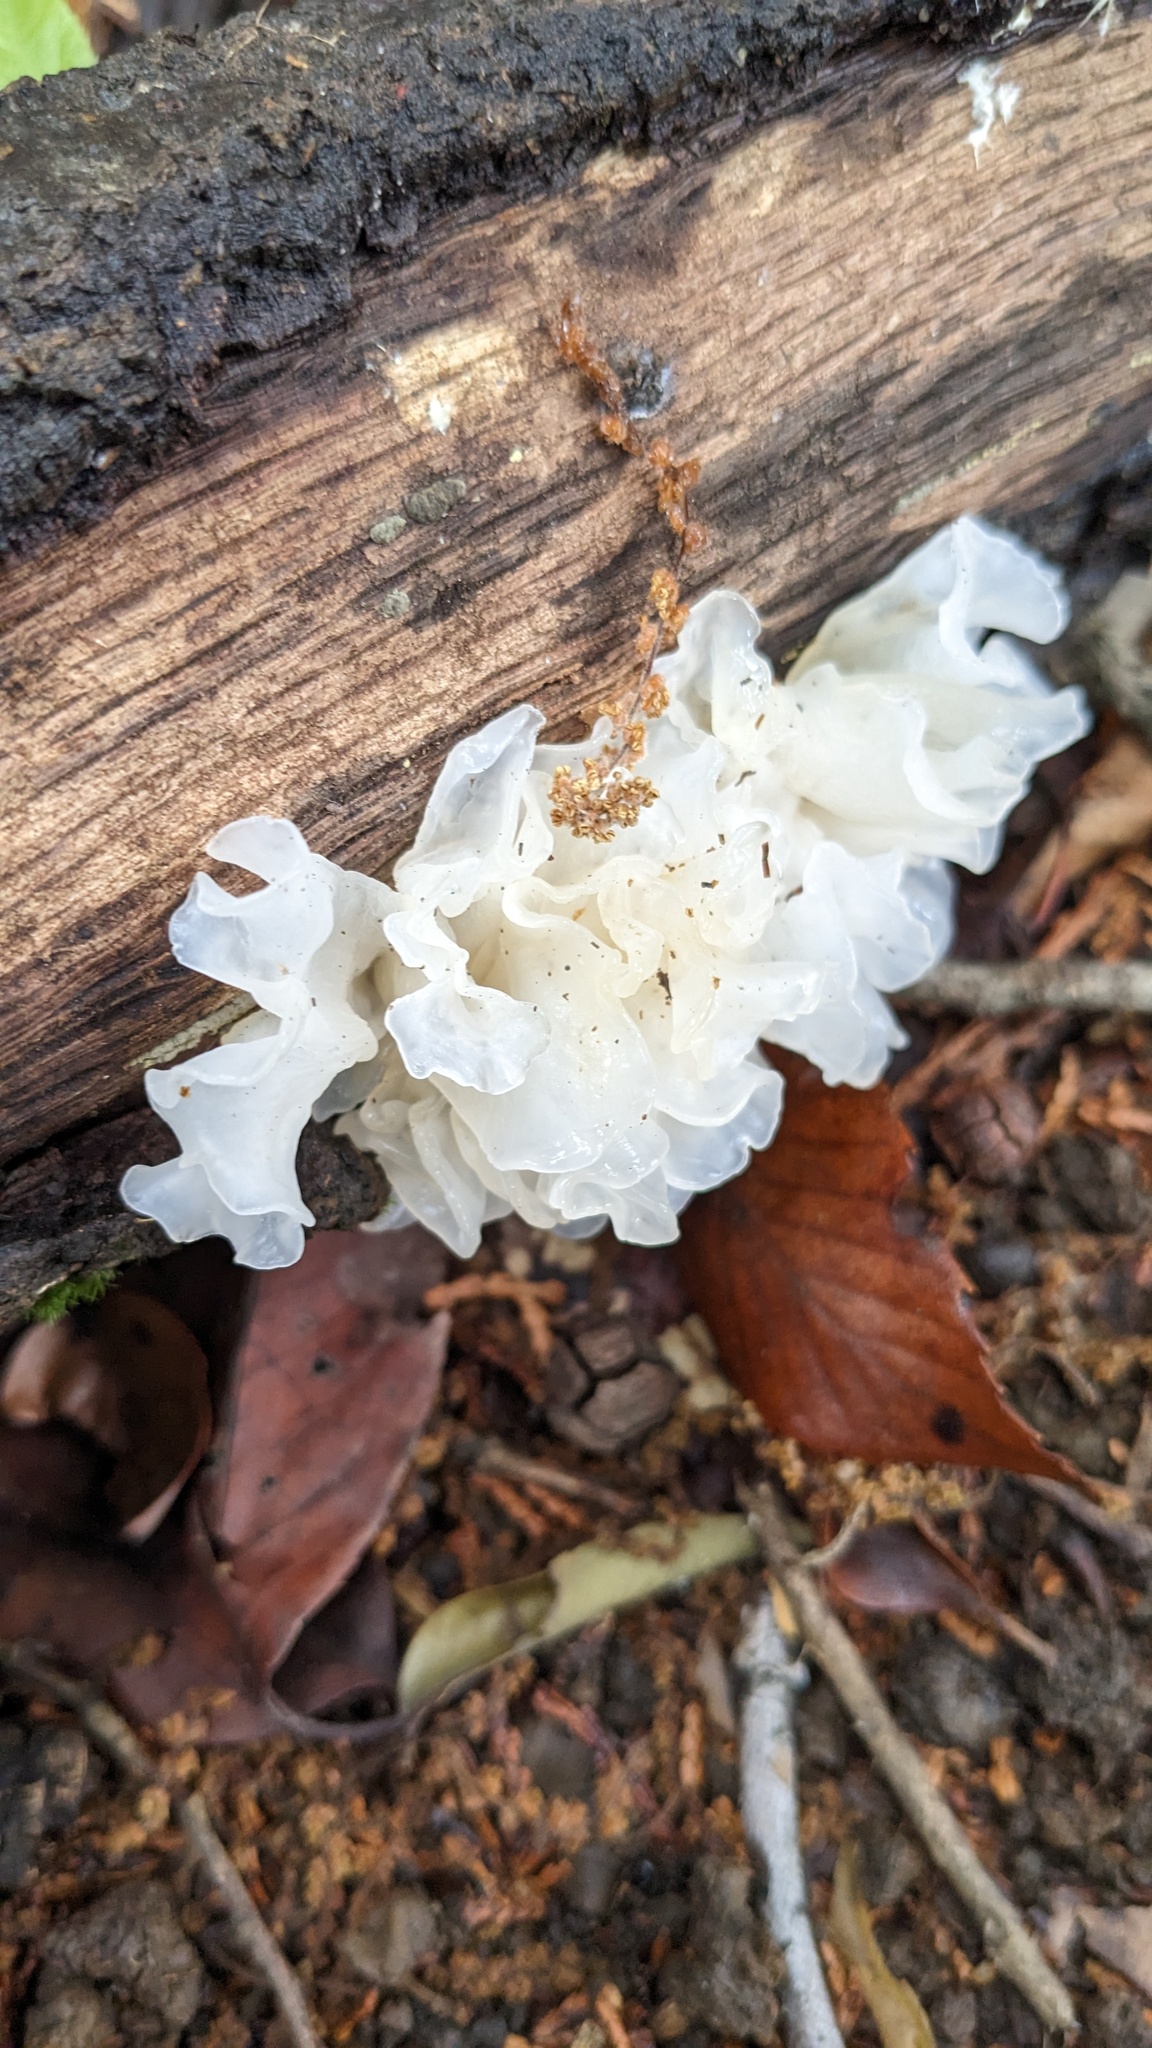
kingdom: Fungi
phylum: Basidiomycota
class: Tremellomycetes
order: Tremellales
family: Tremellaceae
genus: Tremella
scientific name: Tremella fuciformis
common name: Snow fungus
